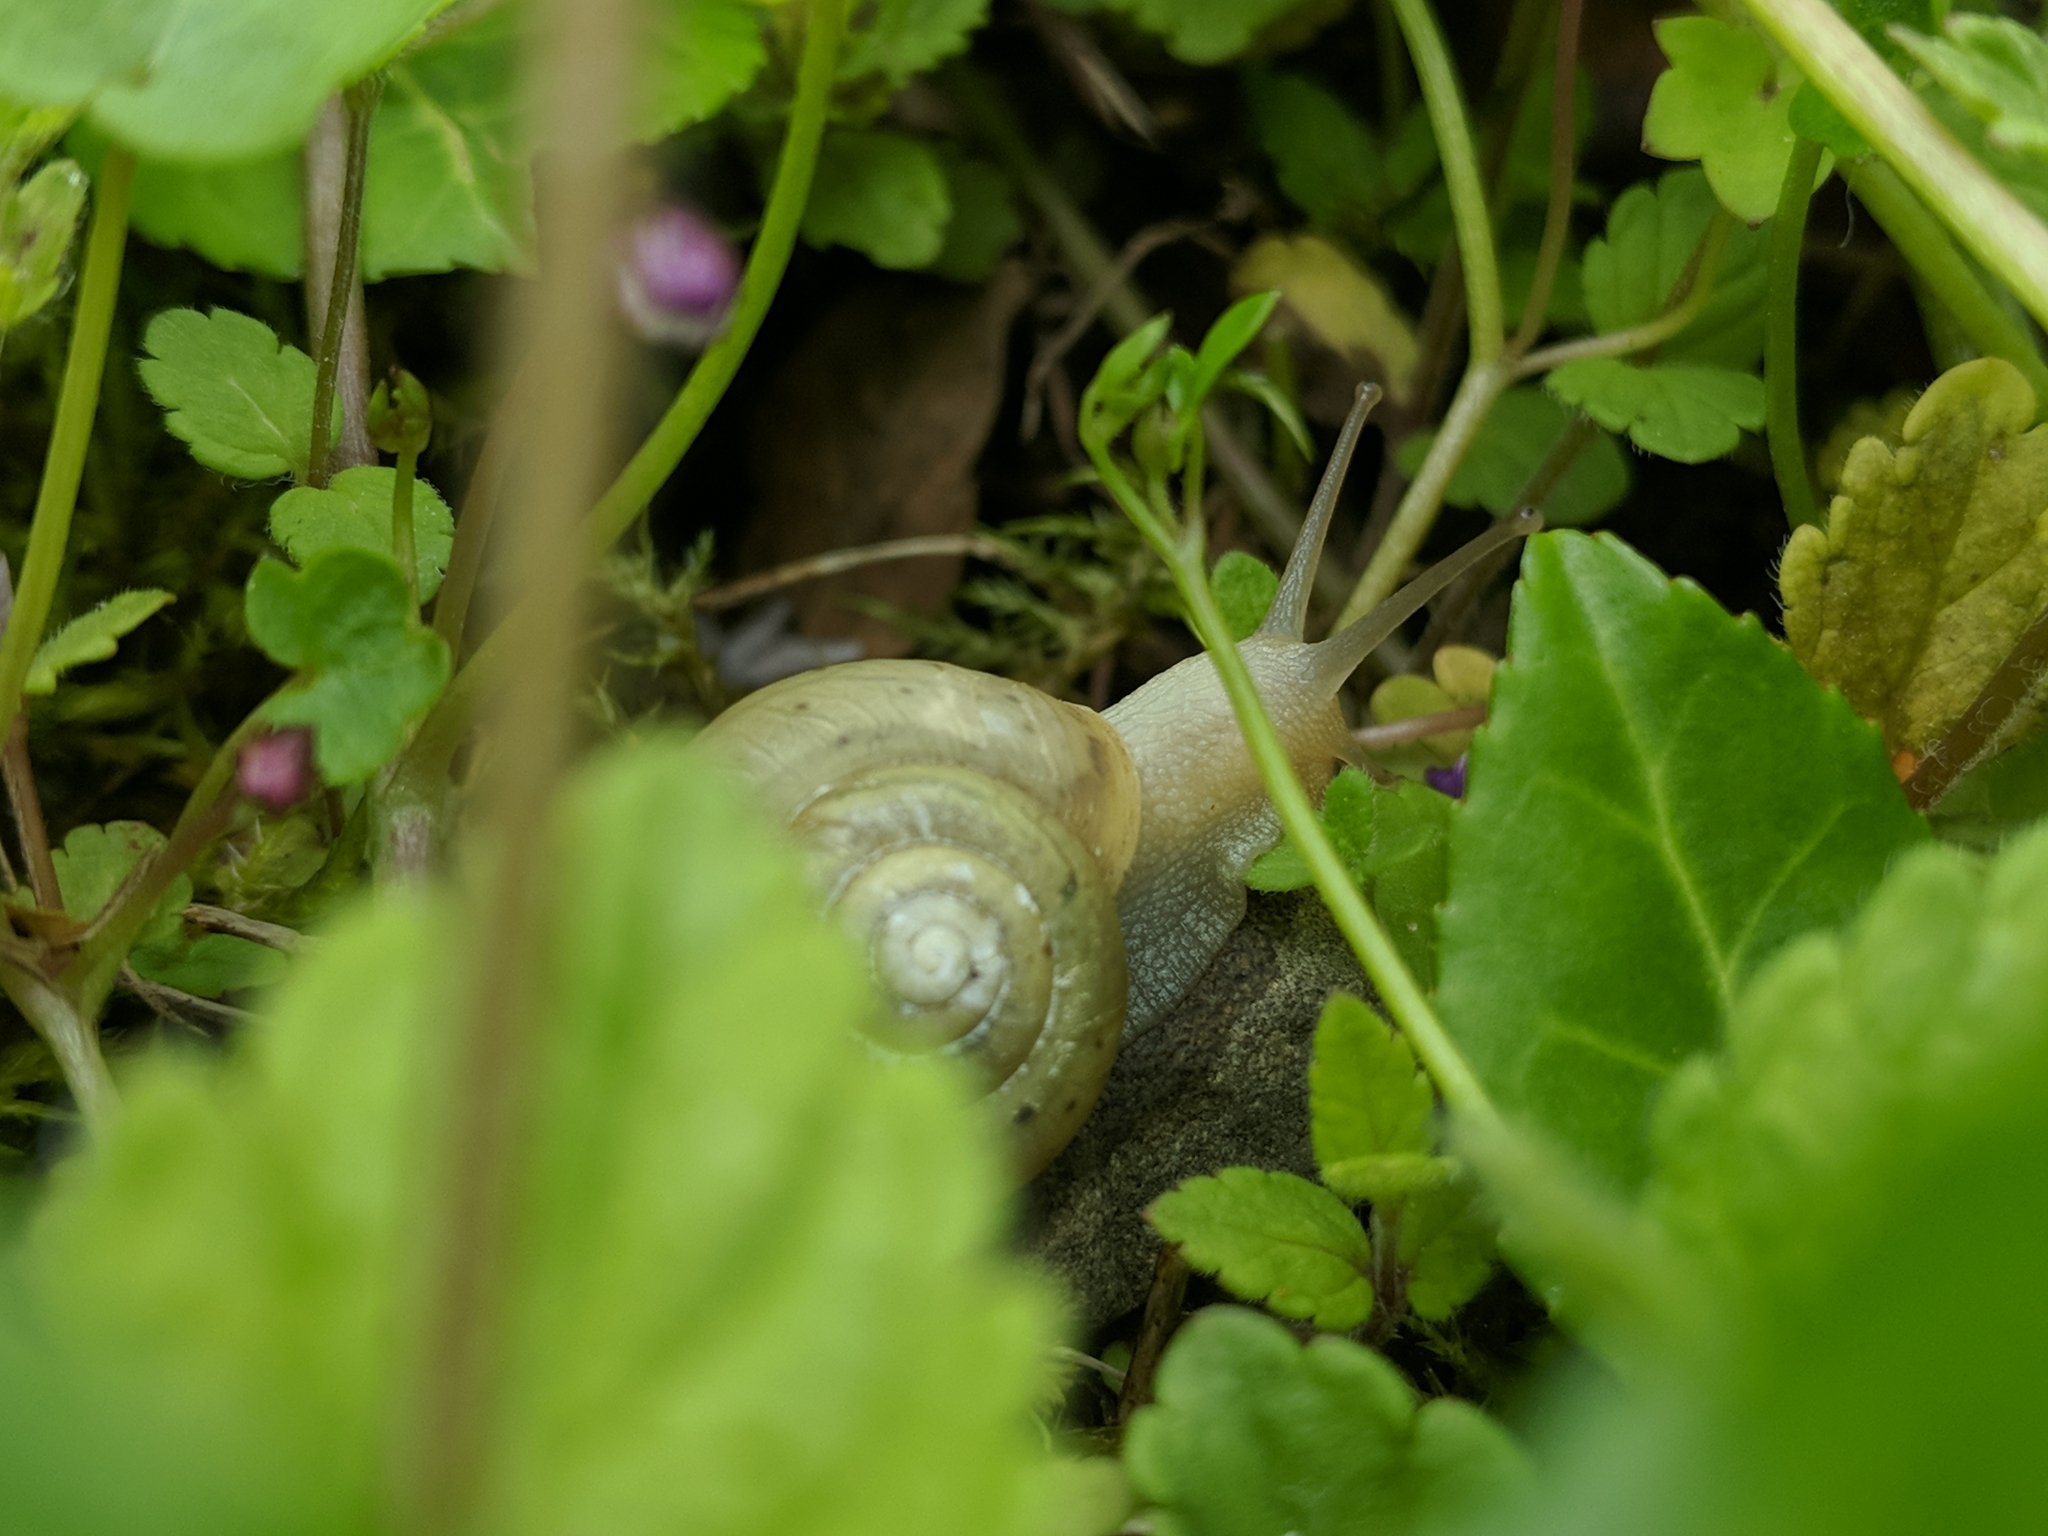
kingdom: Animalia
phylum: Mollusca
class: Gastropoda
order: Stylommatophora
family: Helicidae
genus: Cepaea
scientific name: Cepaea hortensis
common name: White-lip gardensnail
